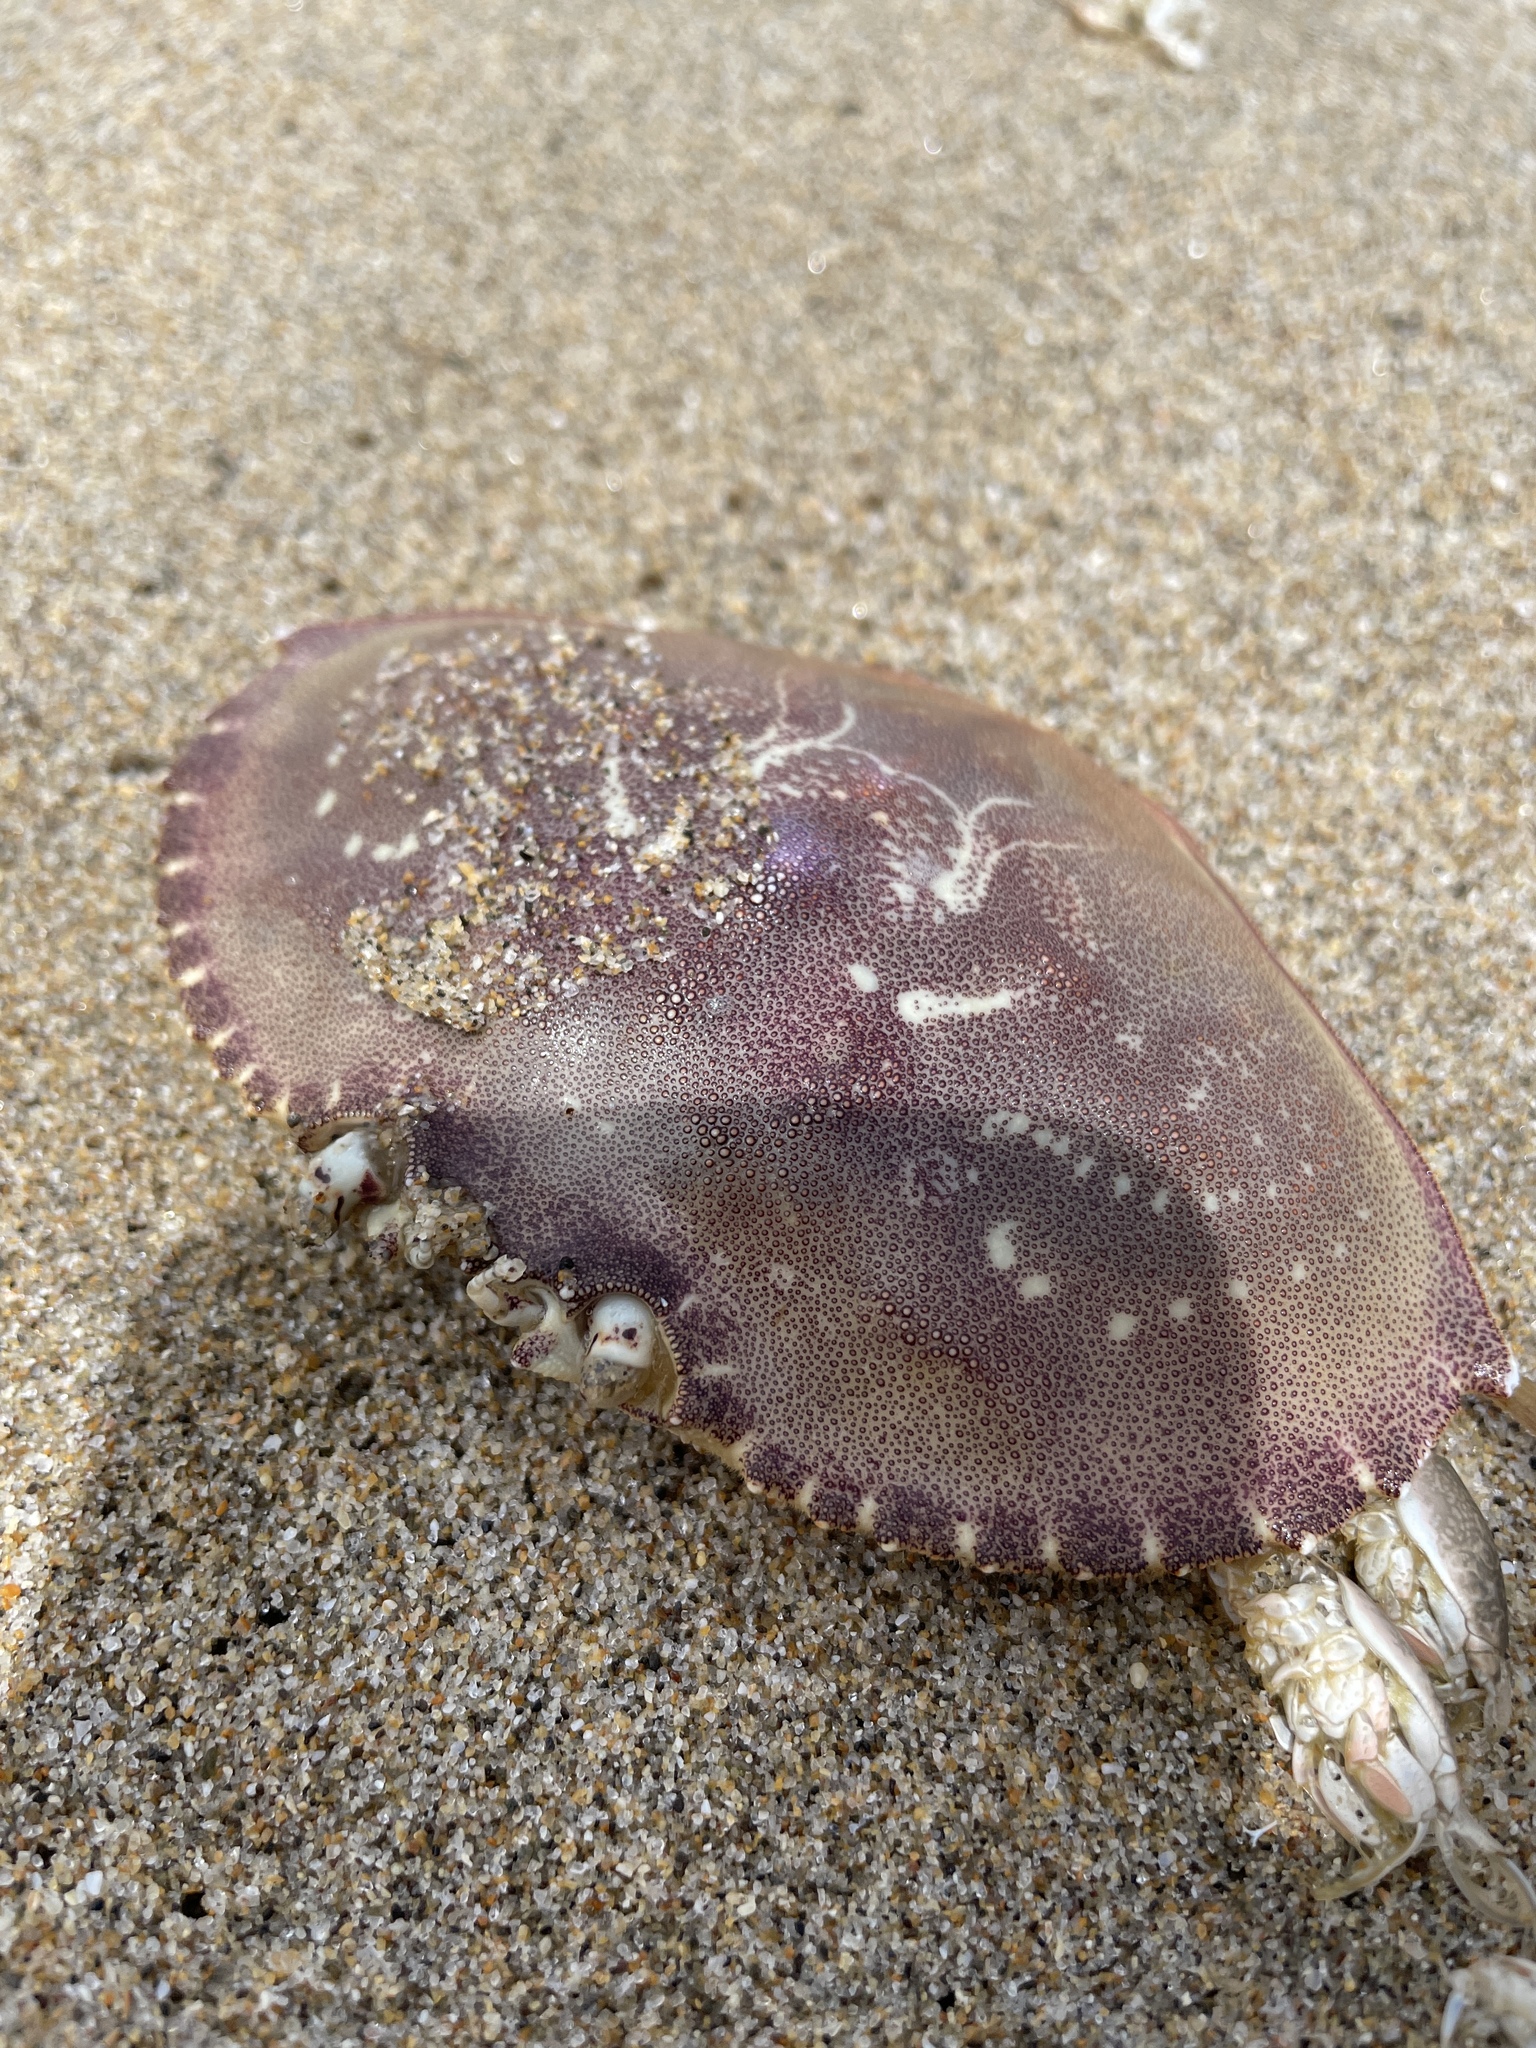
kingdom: Animalia
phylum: Arthropoda
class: Malacostraca
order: Decapoda
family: Cancridae
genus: Metacarcinus
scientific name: Metacarcinus magister
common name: Californian crab
